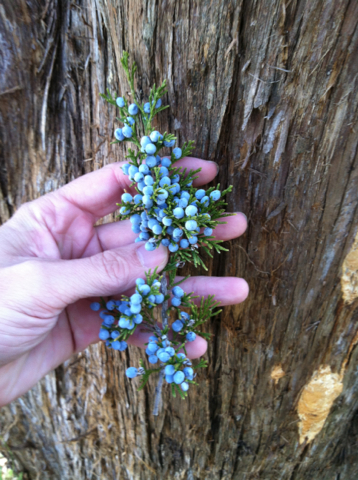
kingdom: Plantae
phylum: Tracheophyta
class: Pinopsida
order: Pinales
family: Cupressaceae
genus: Juniperus
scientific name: Juniperus virginiana
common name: Red juniper
